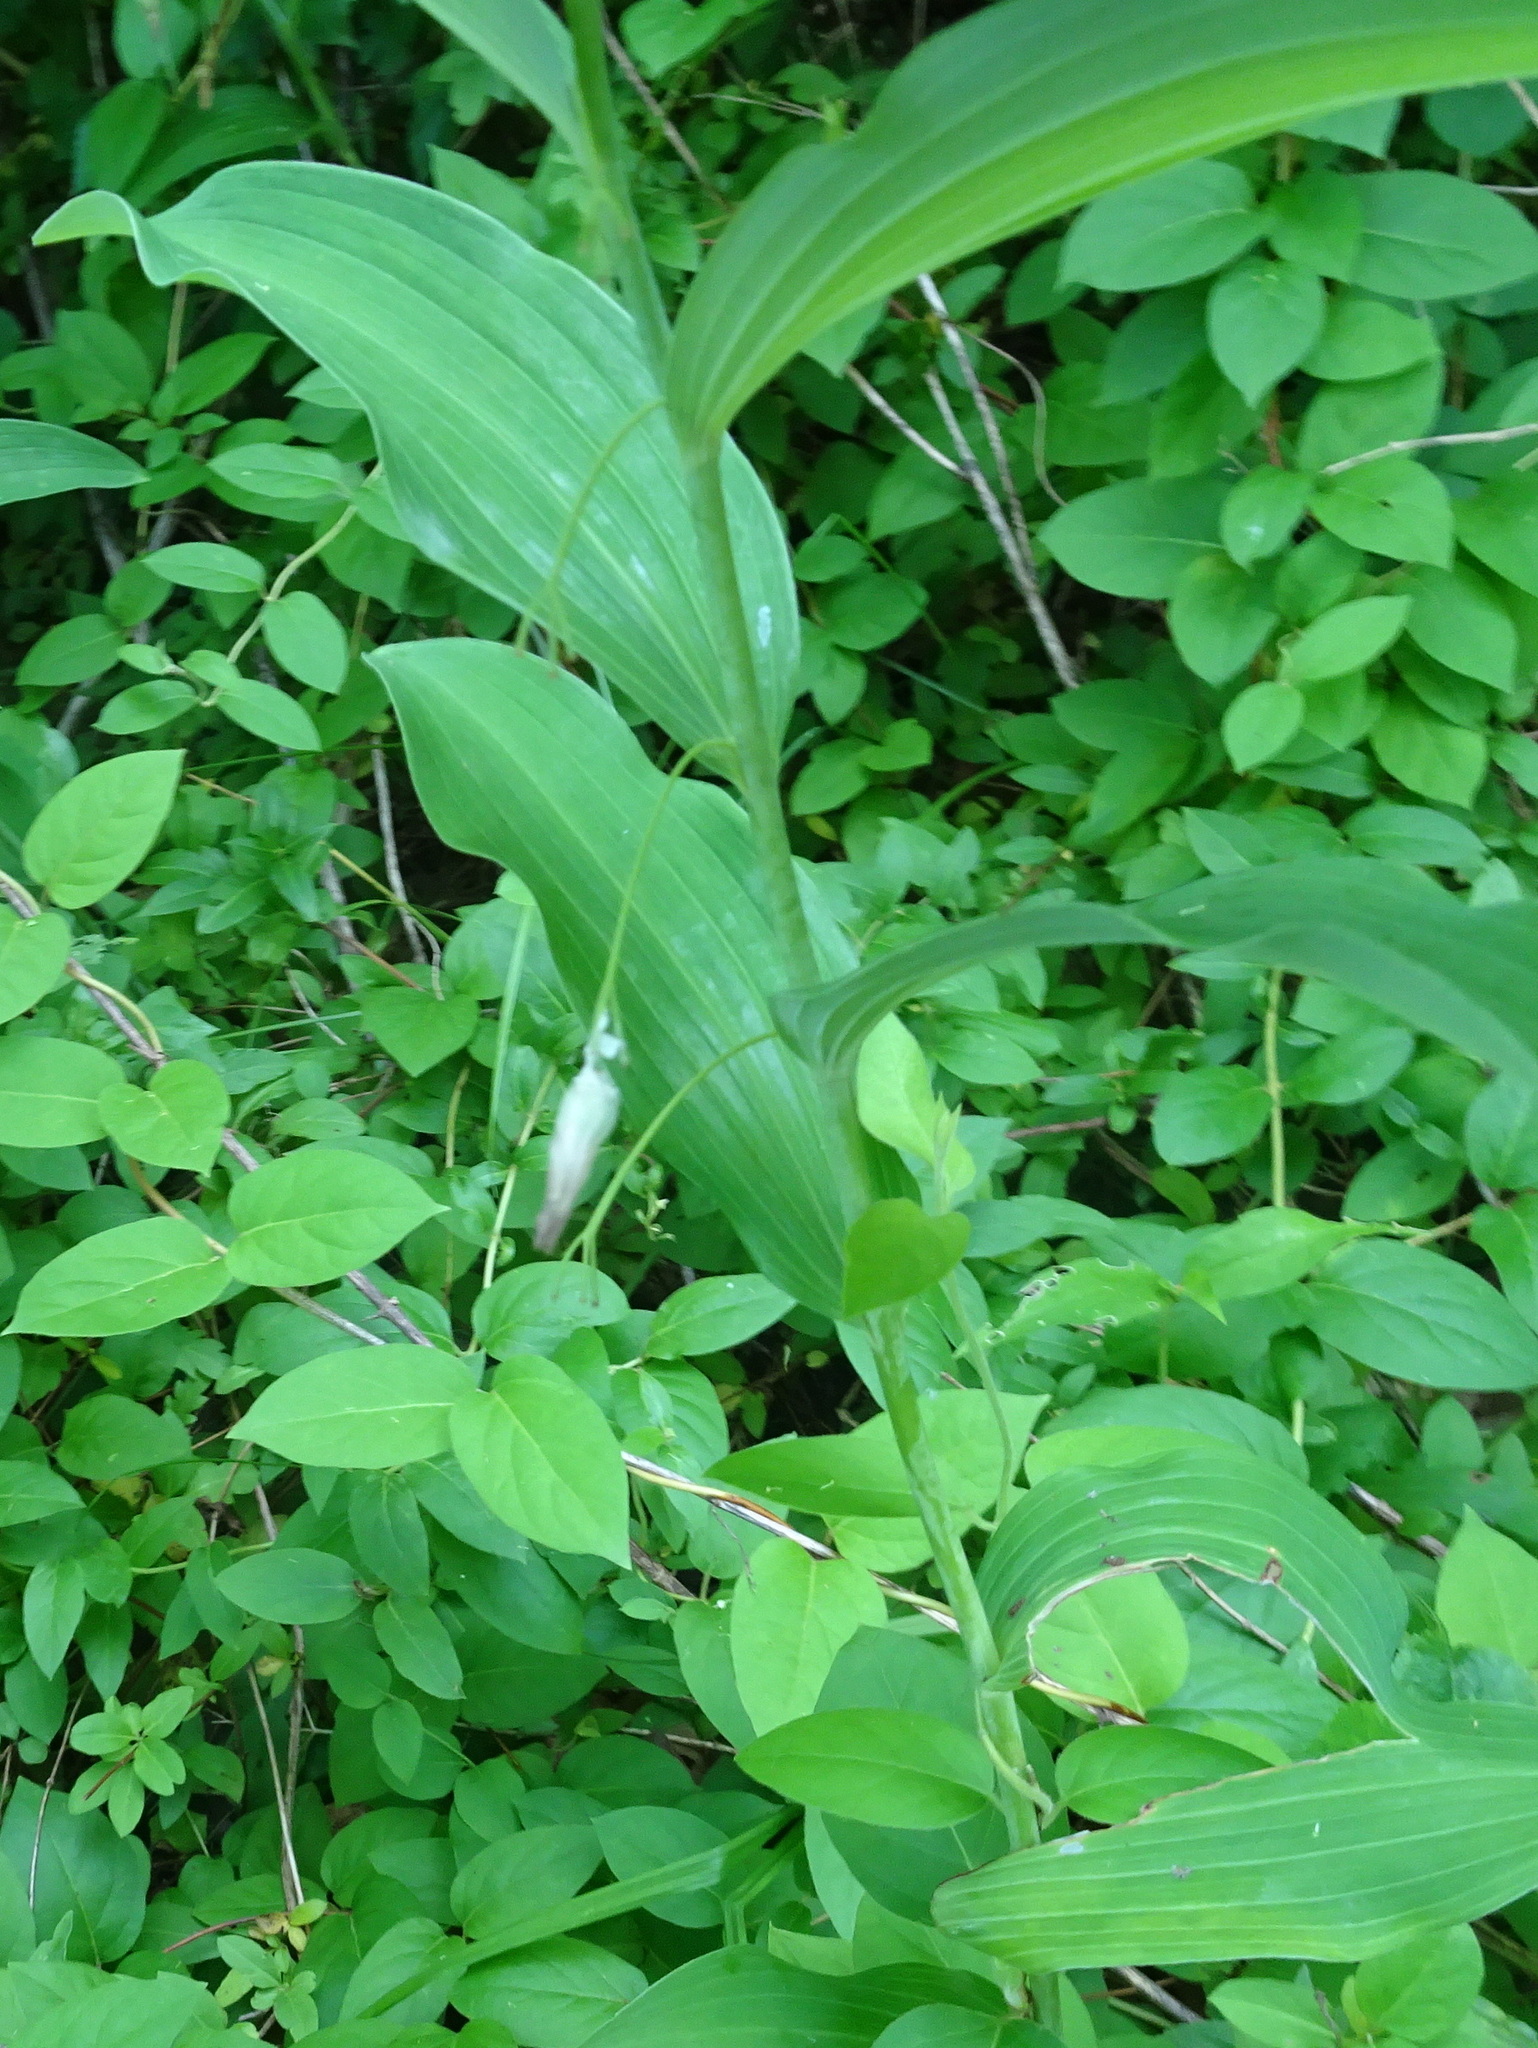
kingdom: Plantae
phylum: Tracheophyta
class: Liliopsida
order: Asparagales
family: Asparagaceae
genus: Polygonatum
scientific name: Polygonatum biflorum
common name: American solomon's-seal
